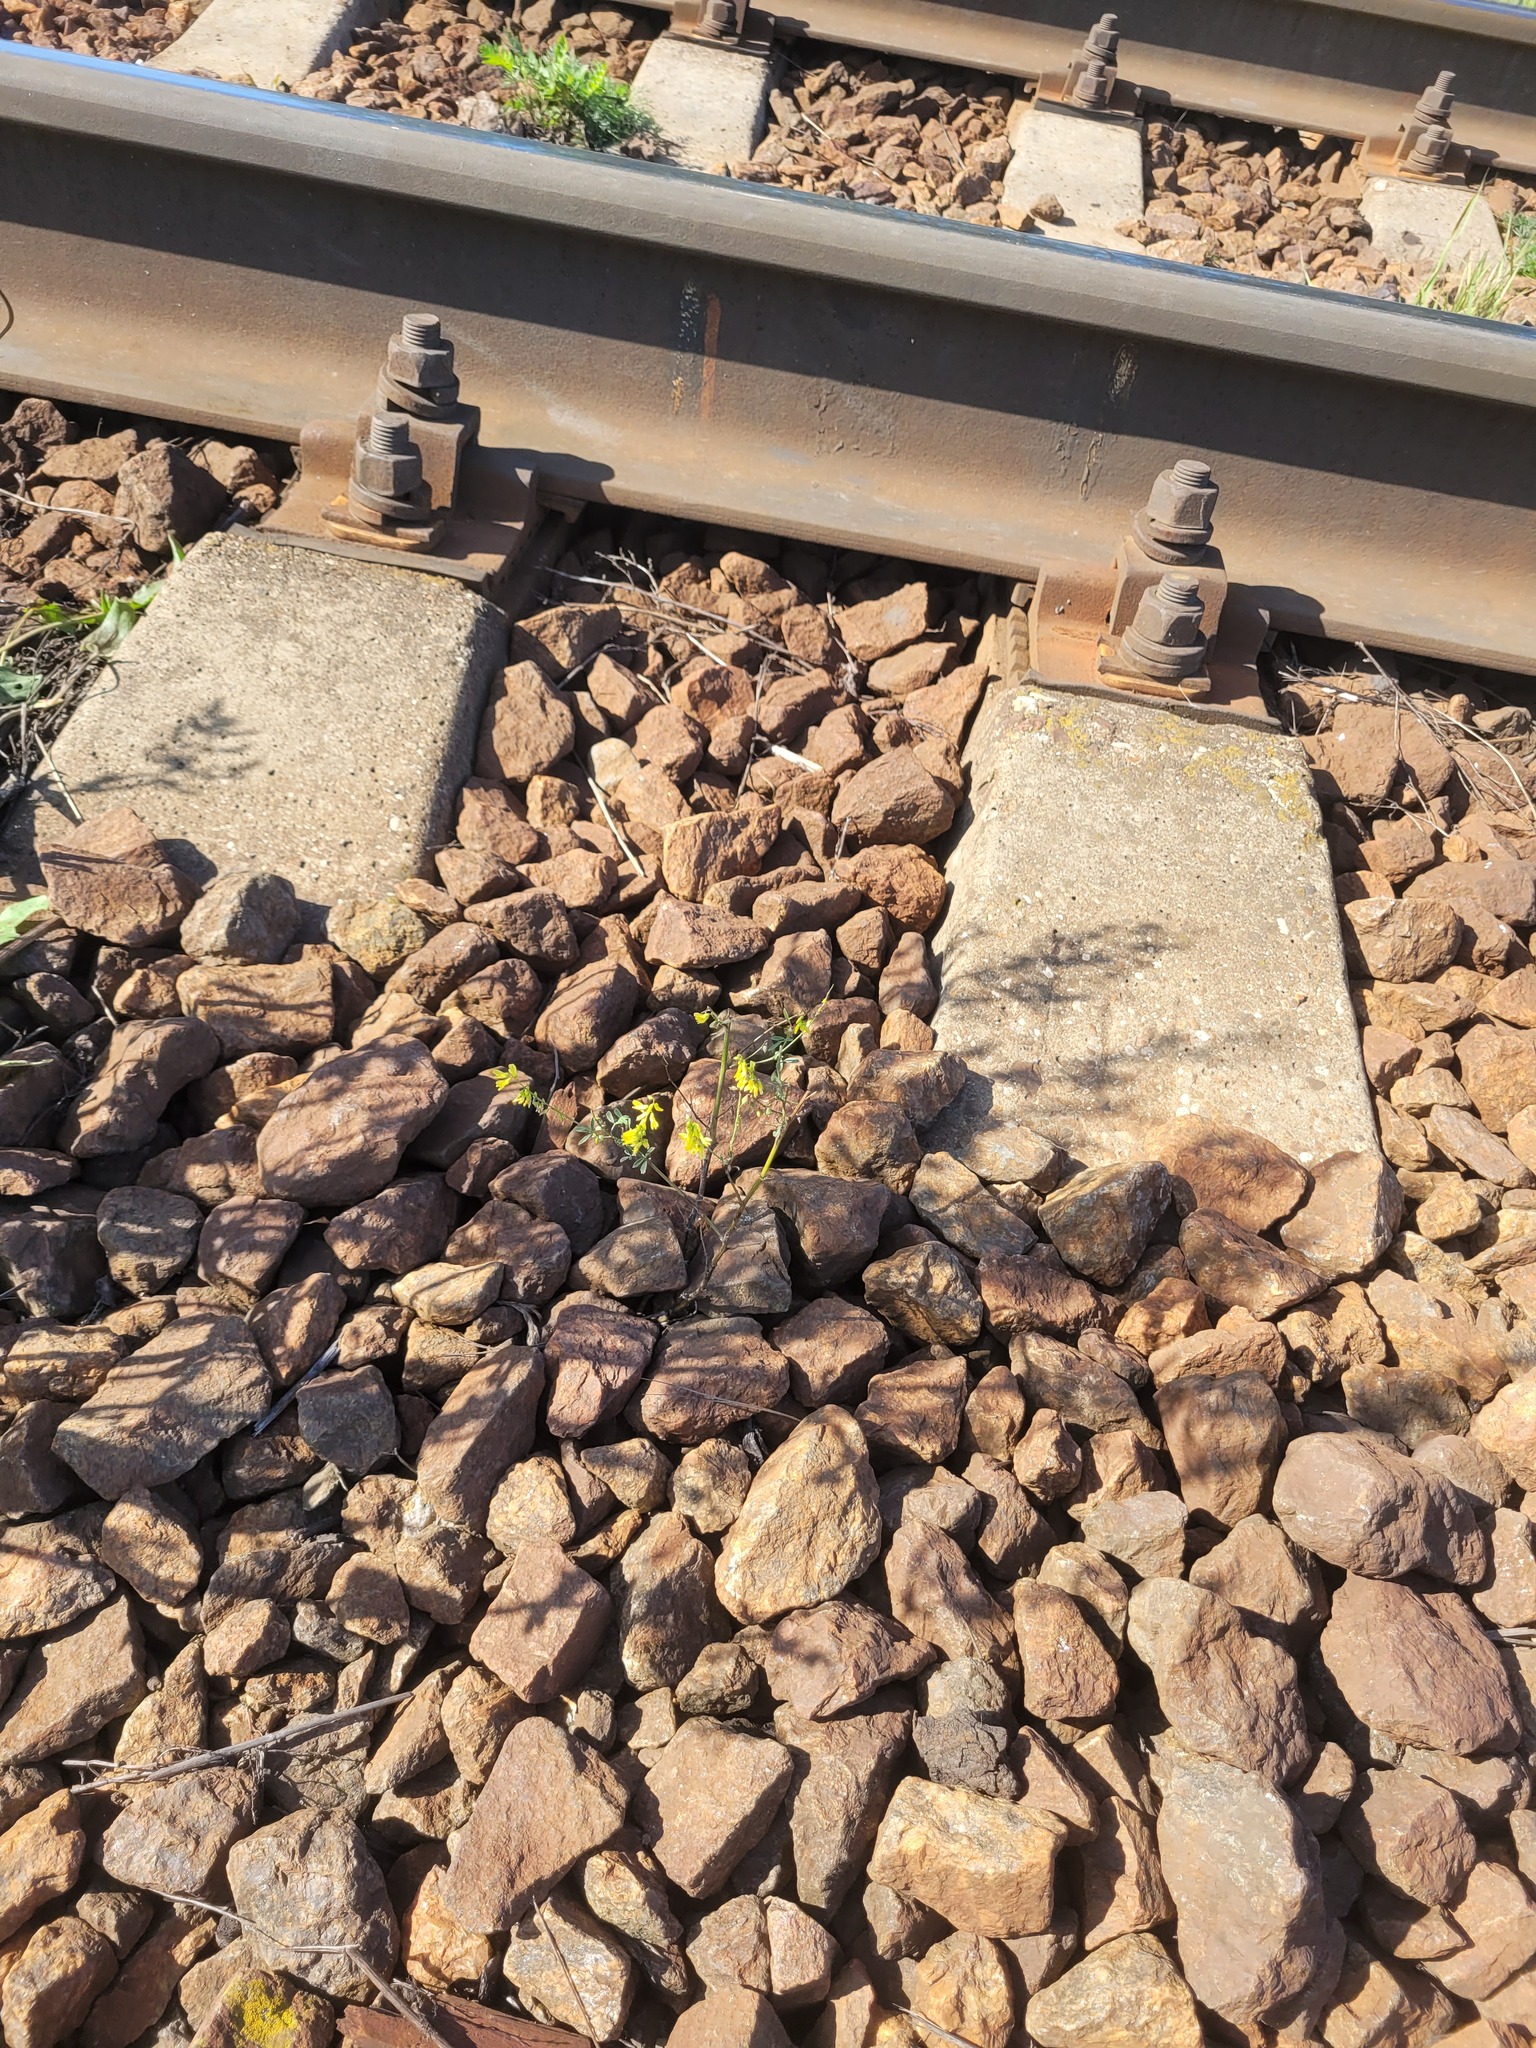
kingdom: Plantae
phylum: Tracheophyta
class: Magnoliopsida
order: Fabales
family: Fabaceae
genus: Melilotus
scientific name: Melilotus officinalis
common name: Sweetclover
